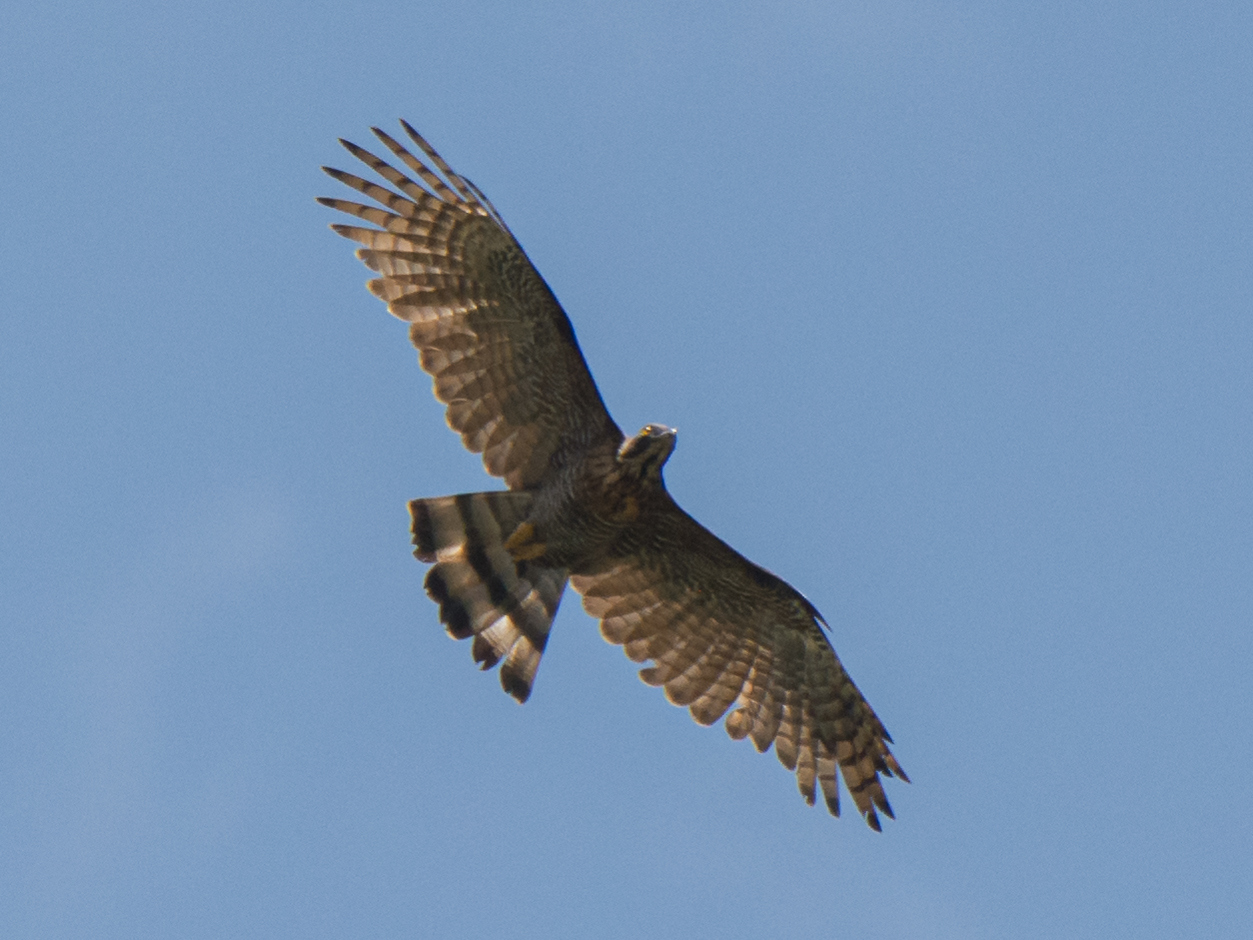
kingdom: Animalia
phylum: Chordata
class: Aves
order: Accipitriformes
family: Accipitridae
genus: Pernis
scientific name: Pernis celebensis
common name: Barred honey buzzard
